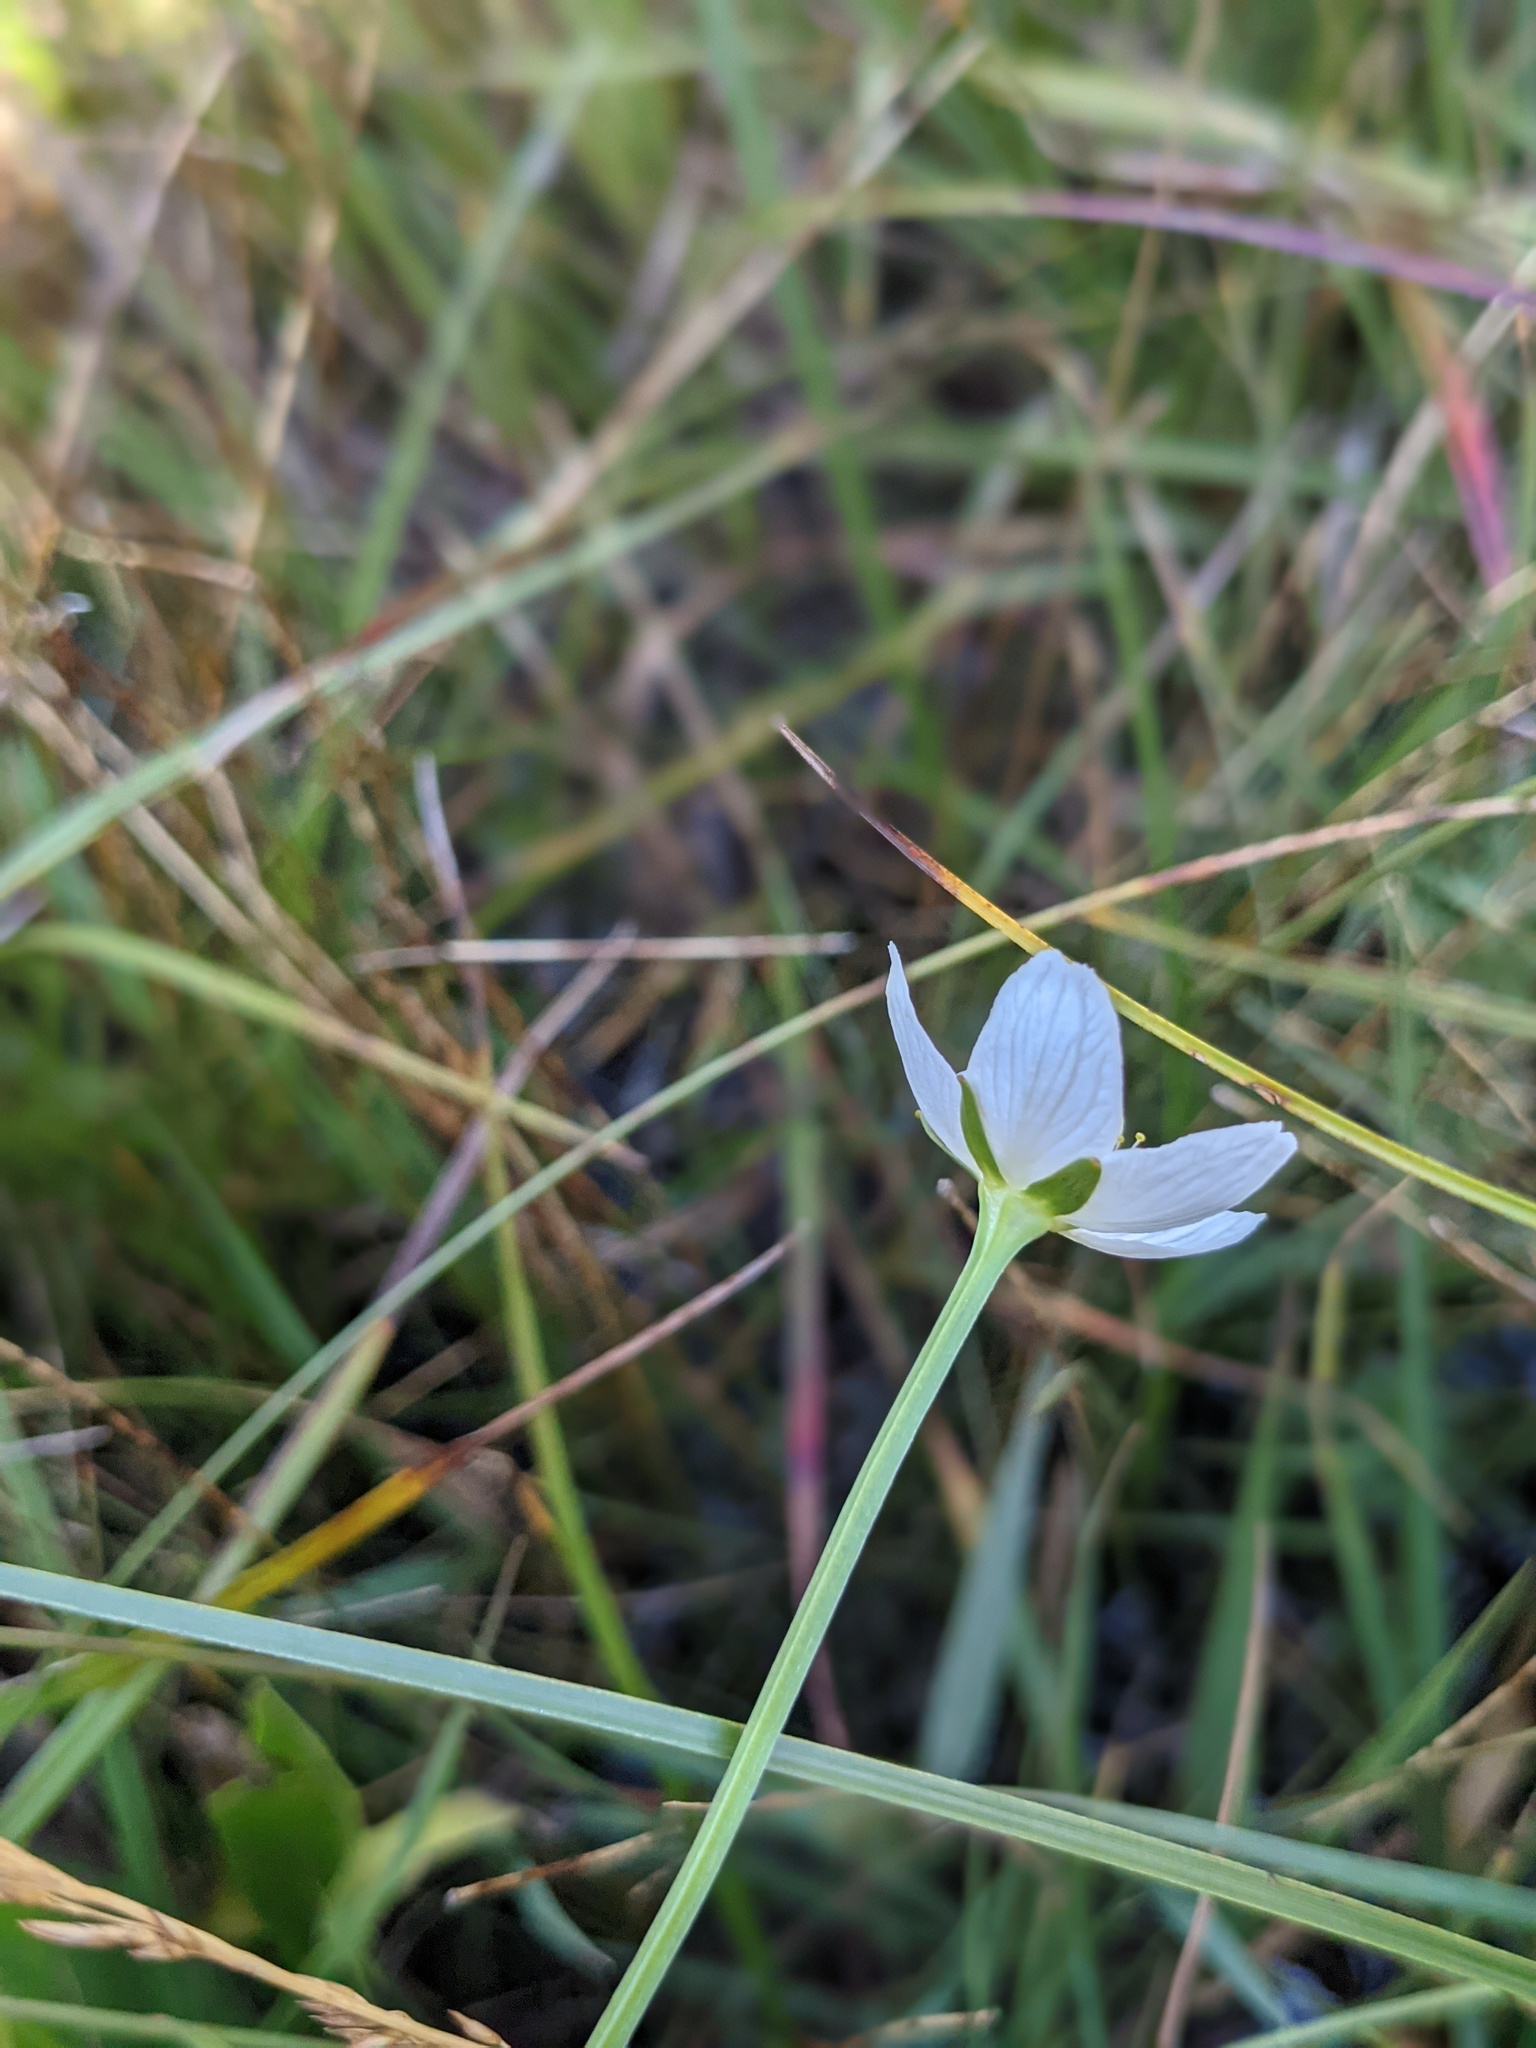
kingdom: Plantae
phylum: Tracheophyta
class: Magnoliopsida
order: Celastrales
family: Parnassiaceae
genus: Parnassia
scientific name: Parnassia palustris
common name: Grass-of-parnassus
